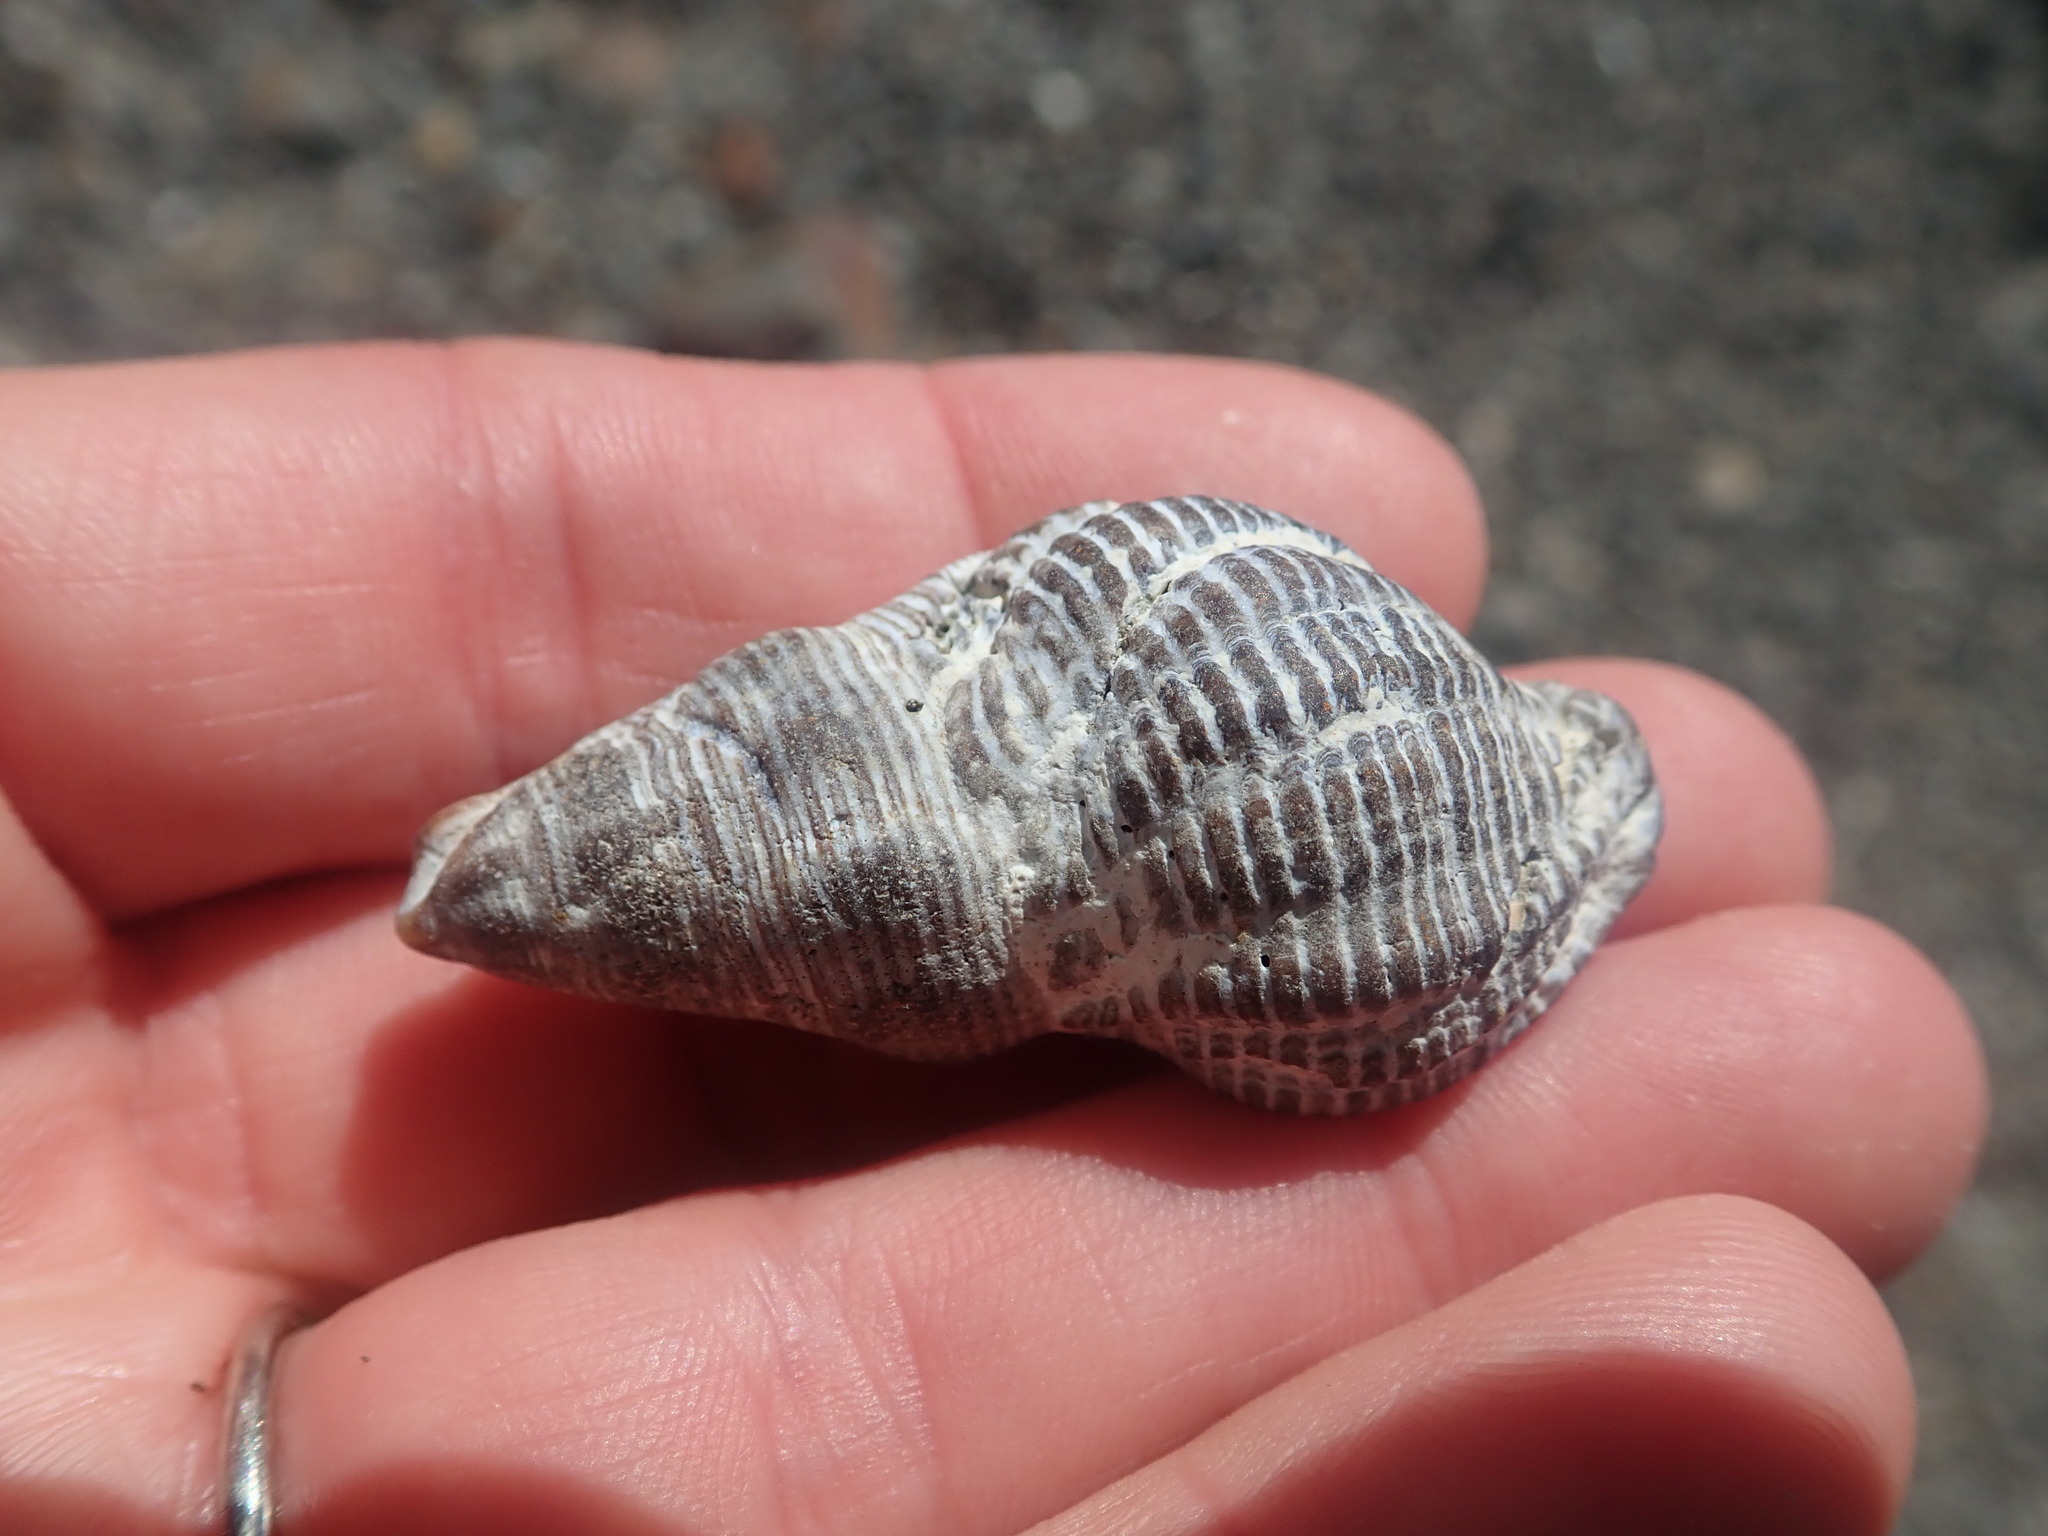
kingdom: Animalia
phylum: Mollusca
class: Gastropoda
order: Neogastropoda
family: Tudiclidae
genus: Lirabuccinum
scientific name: Lirabuccinum dirum
